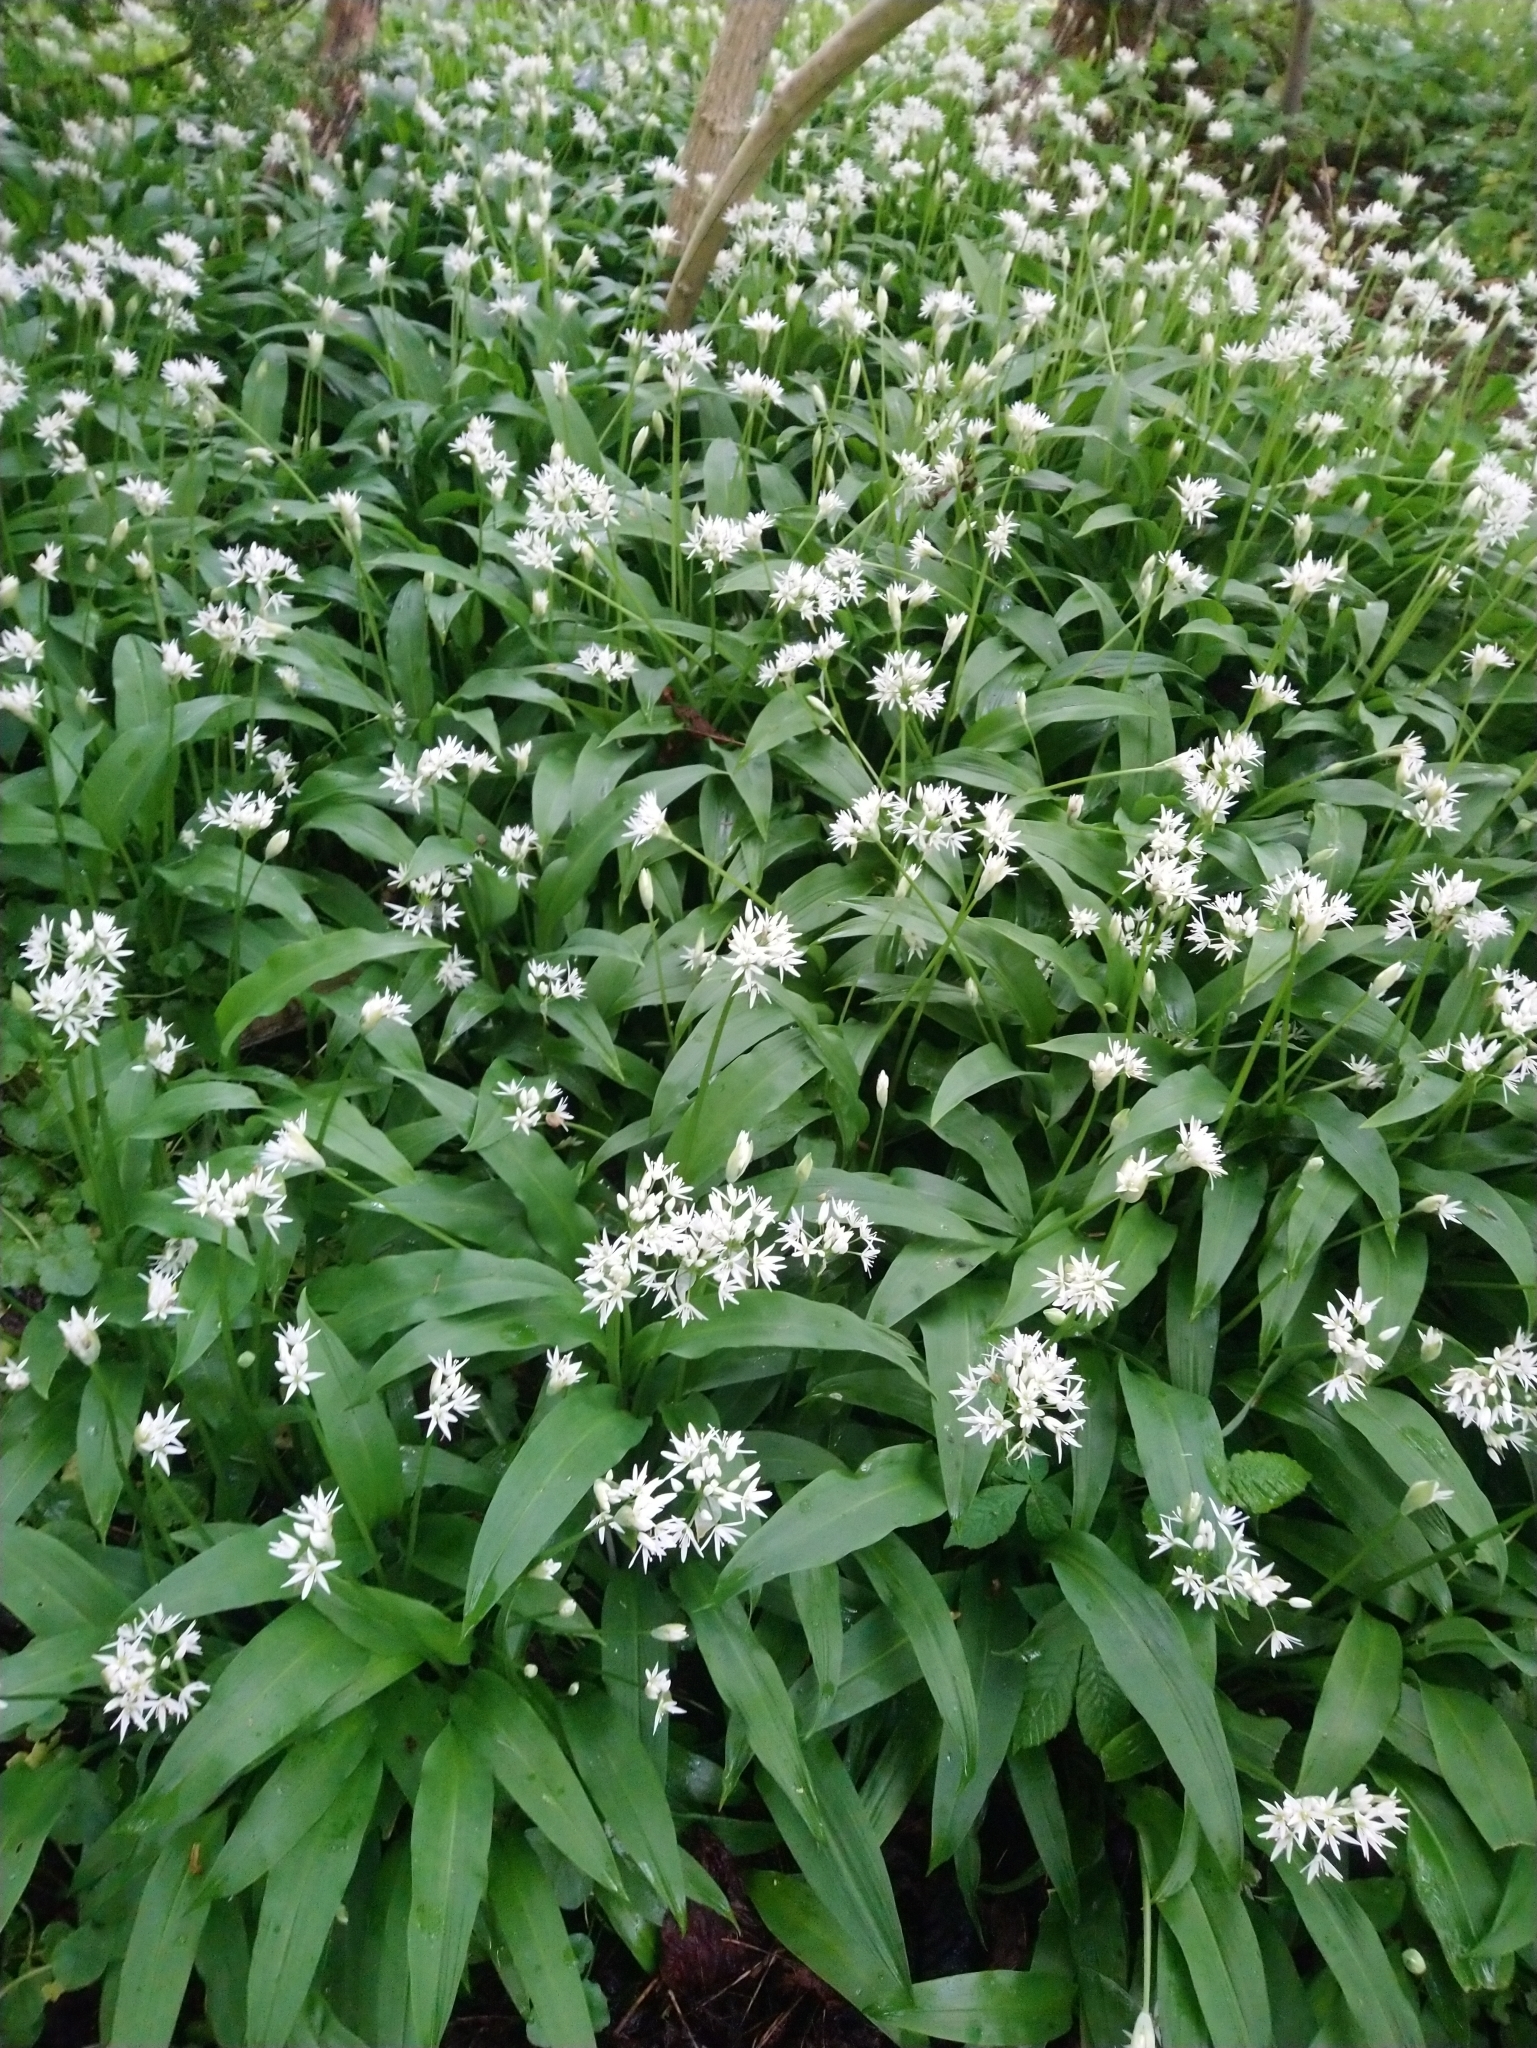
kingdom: Plantae
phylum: Tracheophyta
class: Liliopsida
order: Asparagales
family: Amaryllidaceae
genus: Allium
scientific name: Allium ursinum
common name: Ramsons
